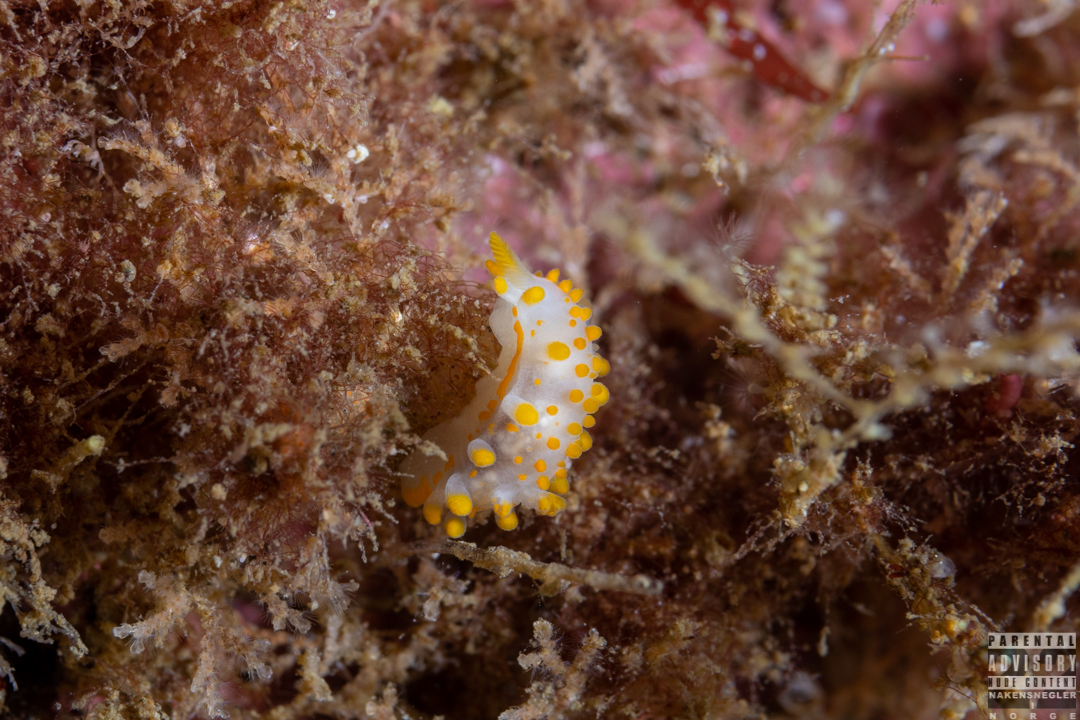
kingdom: Animalia
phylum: Mollusca
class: Gastropoda
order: Nudibranchia
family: Polyceridae
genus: Limacia
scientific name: Limacia clavigera
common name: Orange-clubbed sea slug
